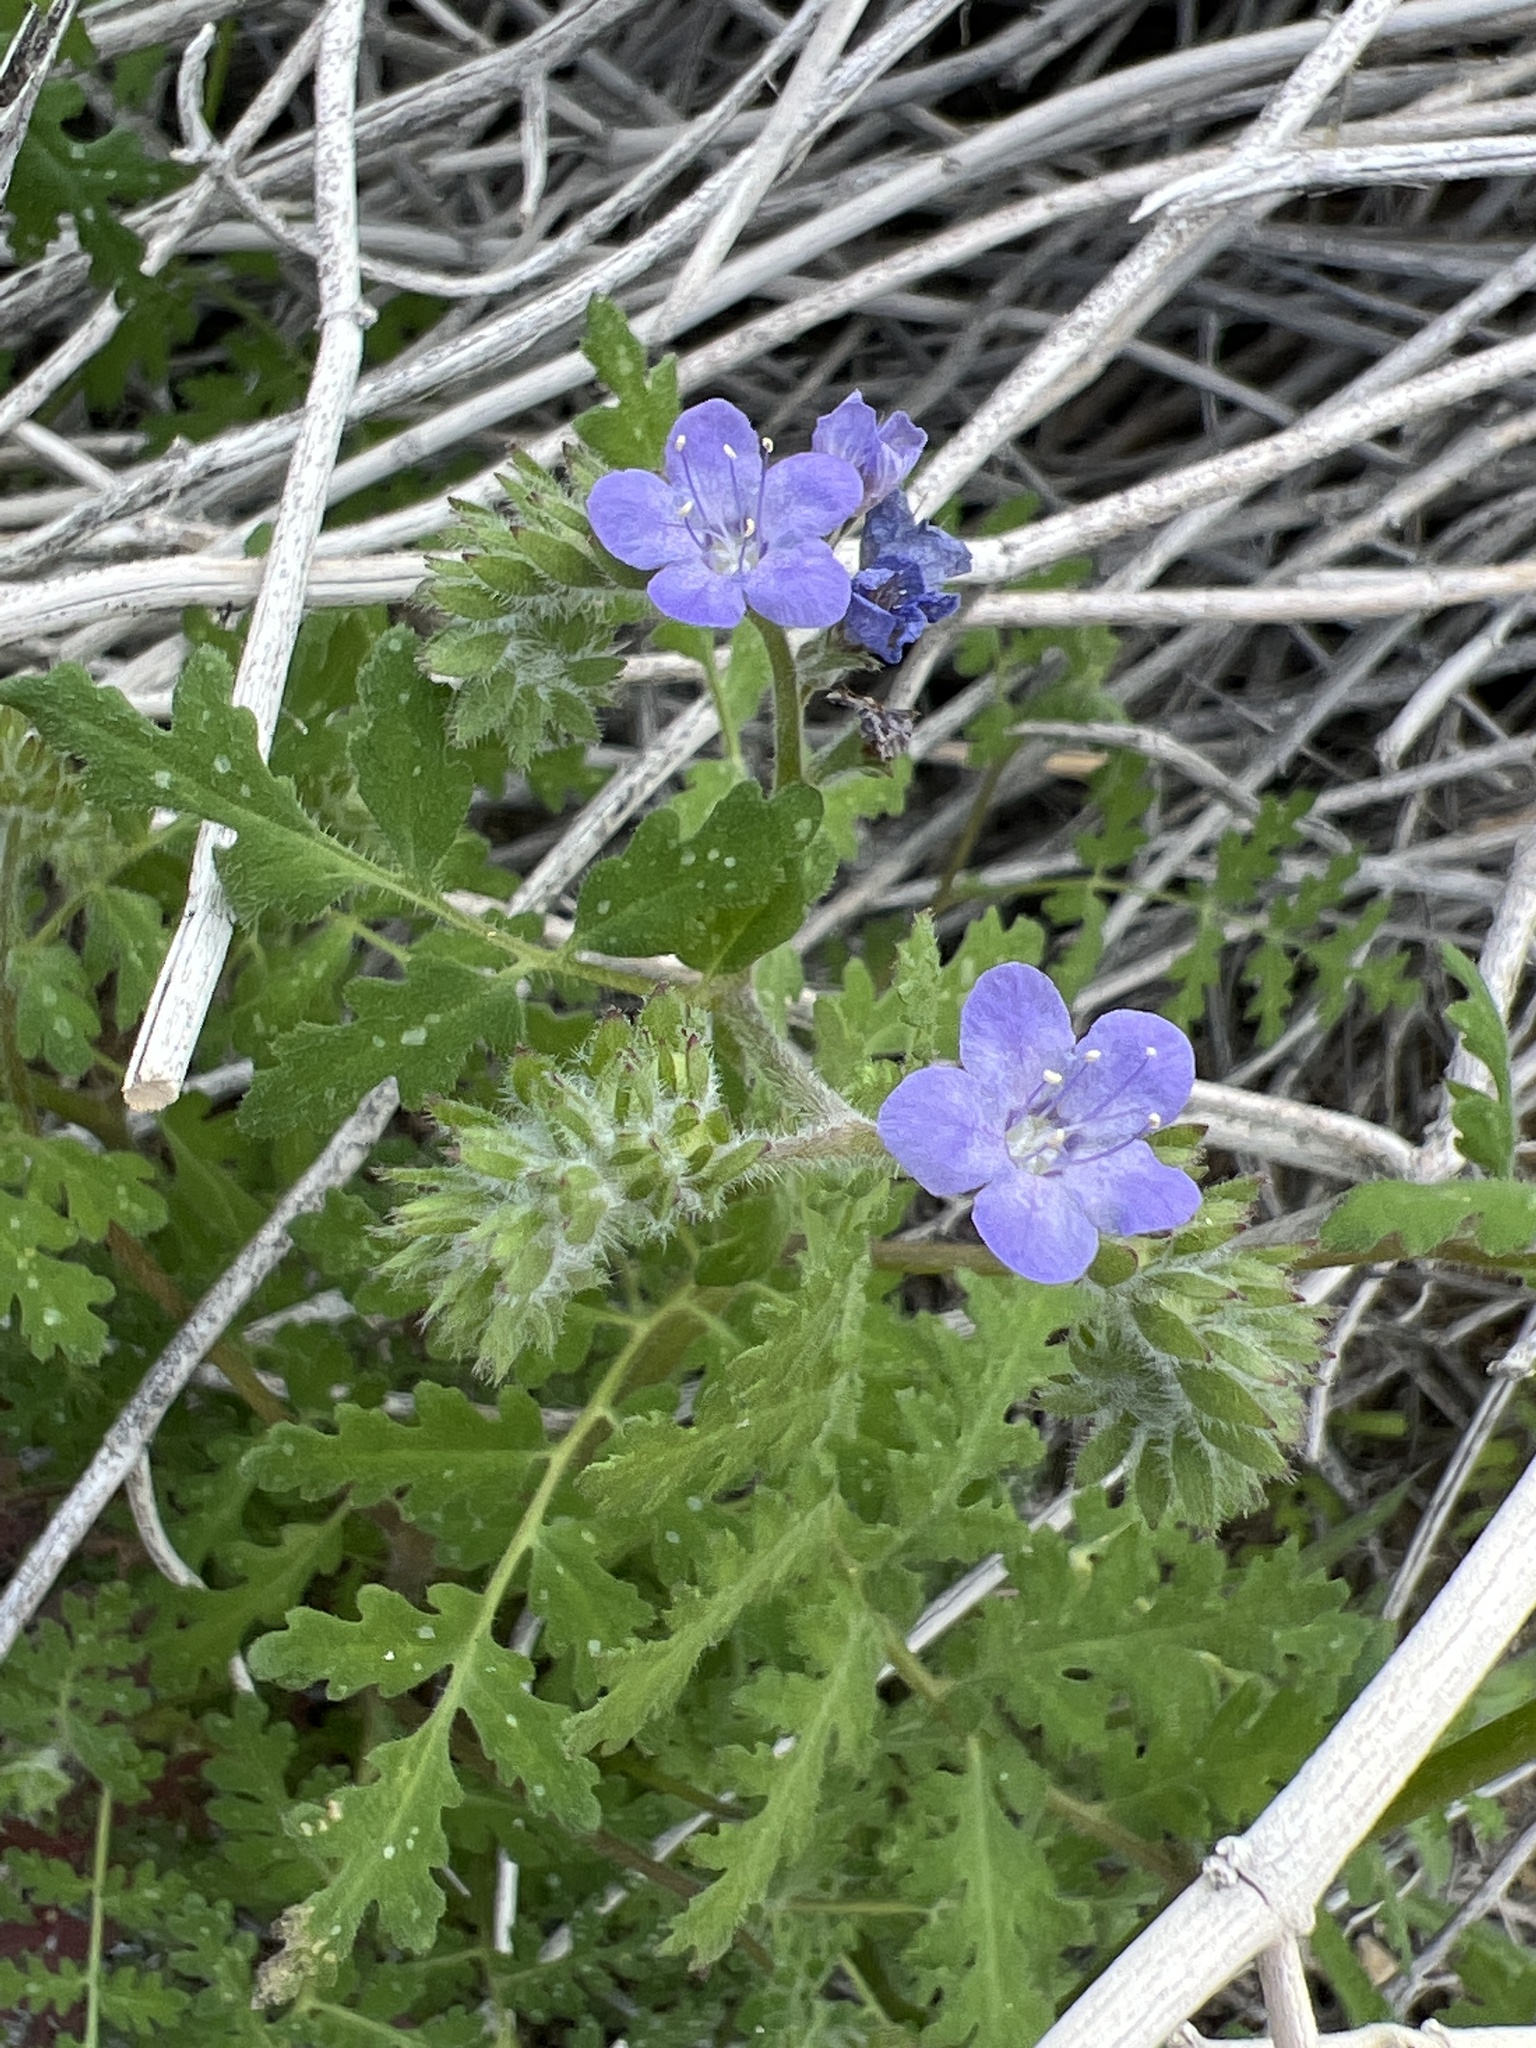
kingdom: Plantae
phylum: Tracheophyta
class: Magnoliopsida
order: Boraginales
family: Hydrophyllaceae
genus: Phacelia
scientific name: Phacelia distans
